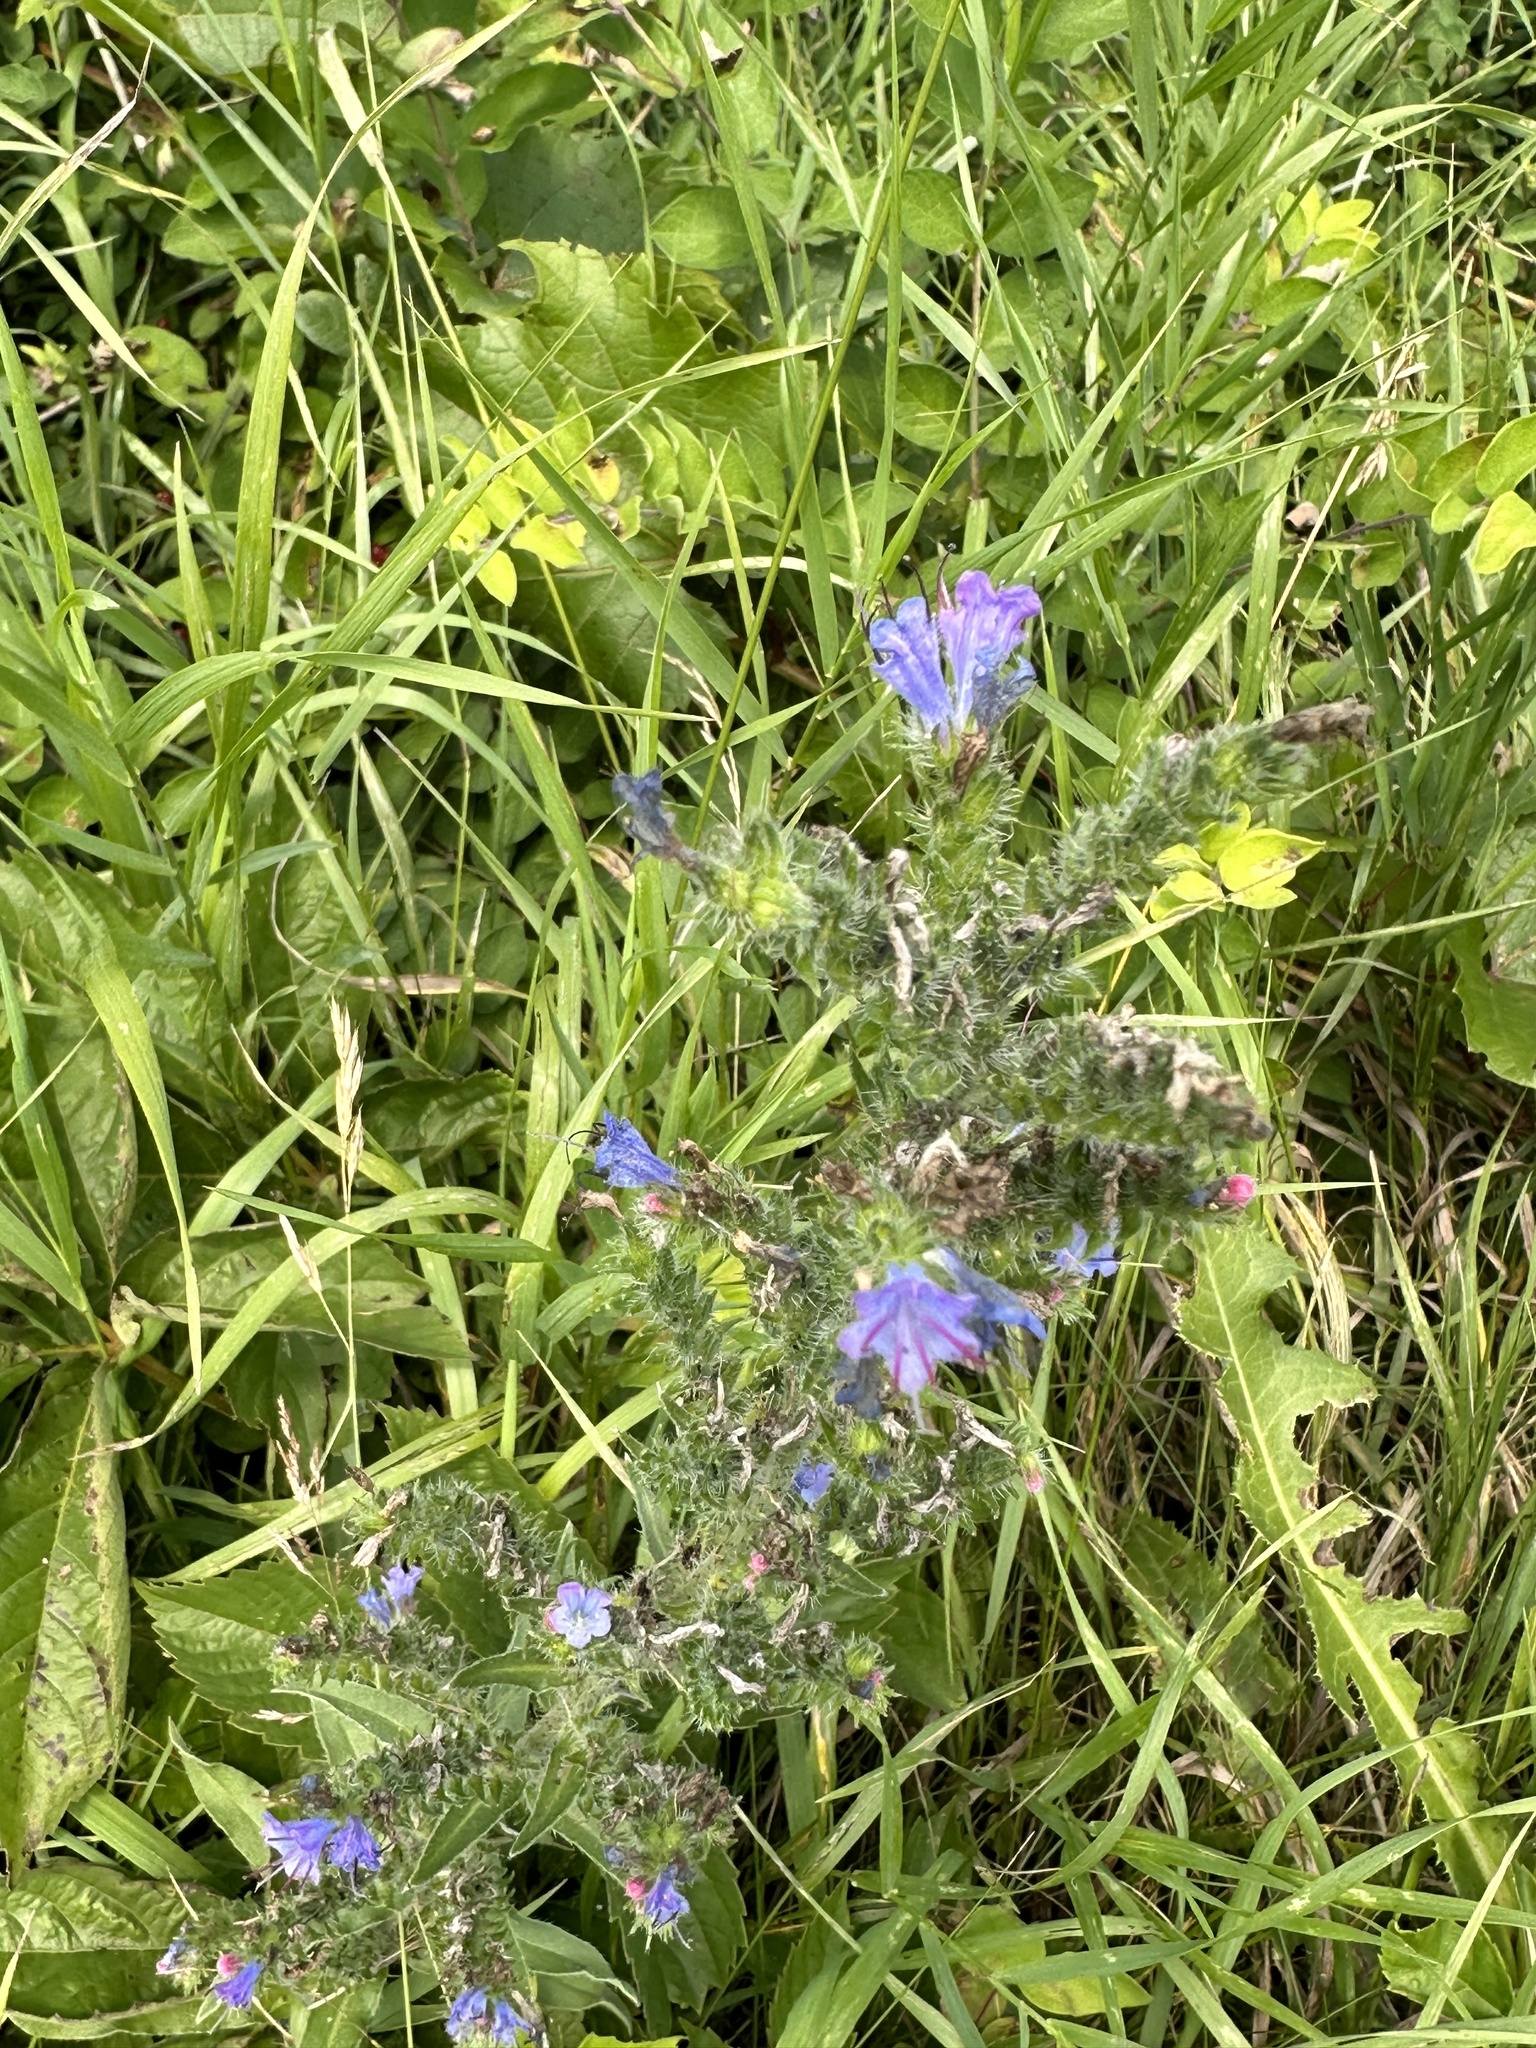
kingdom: Plantae
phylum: Tracheophyta
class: Magnoliopsida
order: Boraginales
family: Boraginaceae
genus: Echium
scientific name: Echium vulgare
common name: Common viper's bugloss
